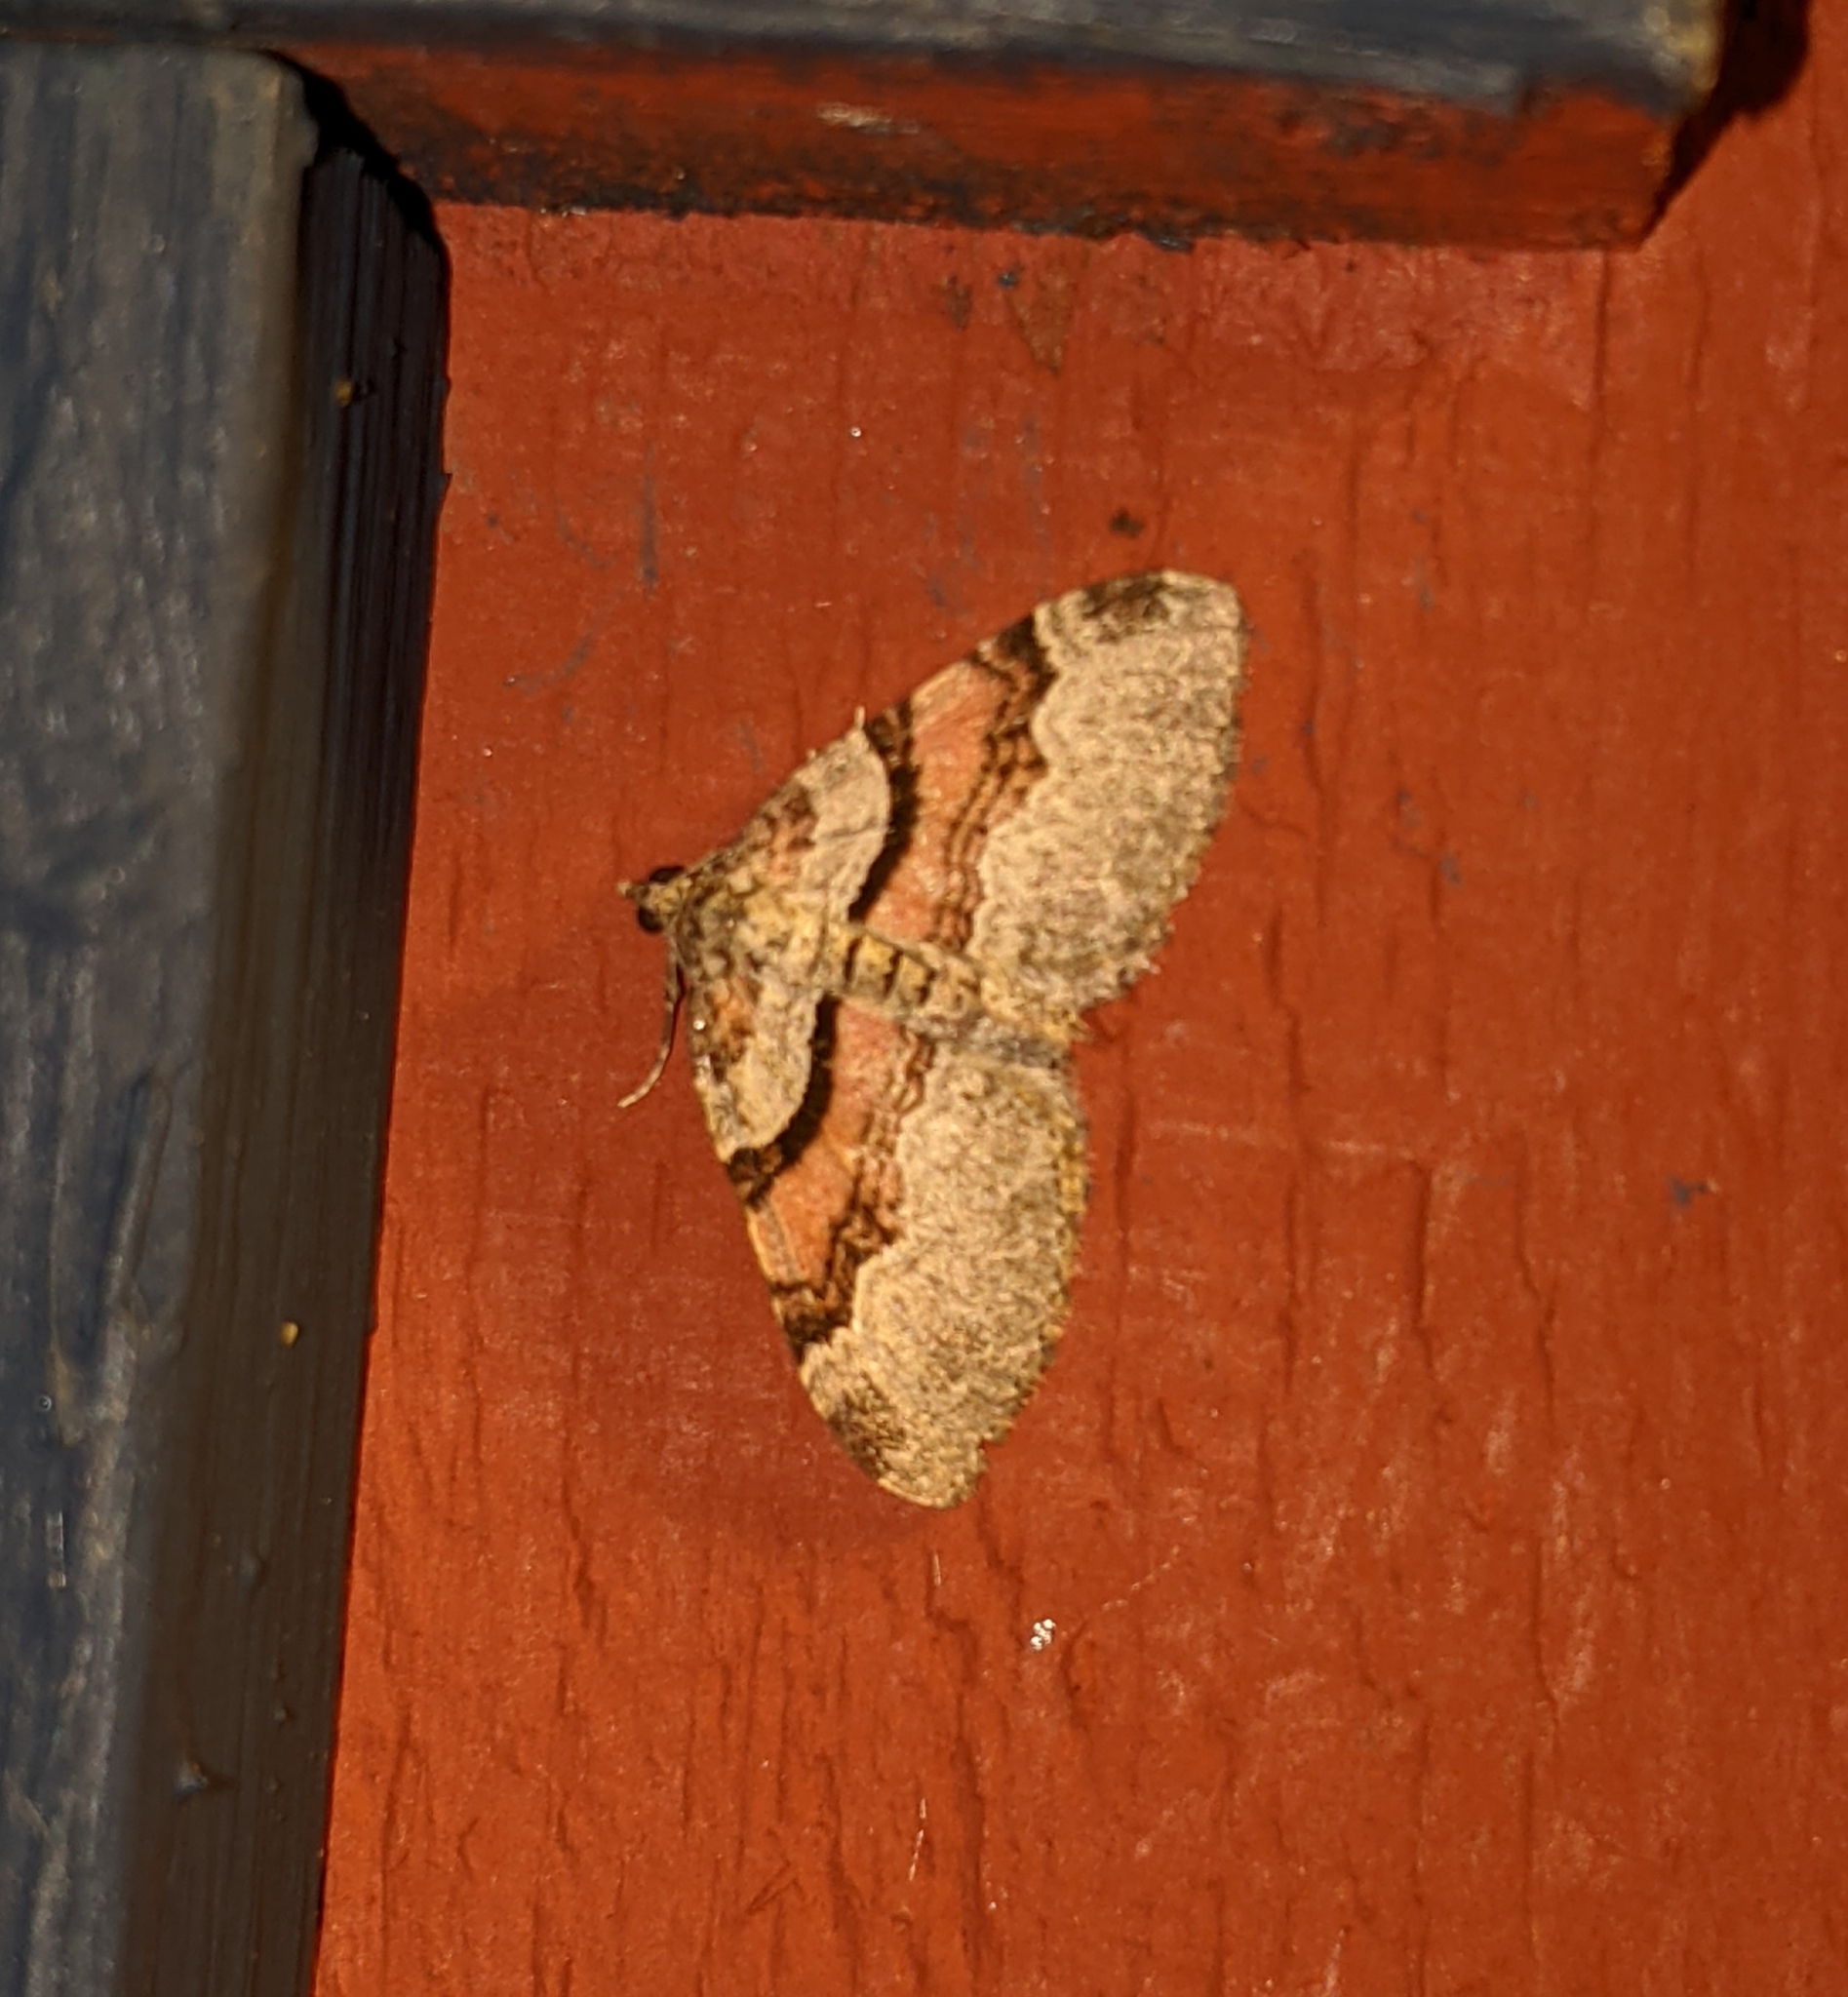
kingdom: Animalia
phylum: Arthropoda
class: Insecta
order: Lepidoptera
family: Geometridae
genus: Xanthorhoe
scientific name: Xanthorhoe labradorensis
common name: Labrador carpet
